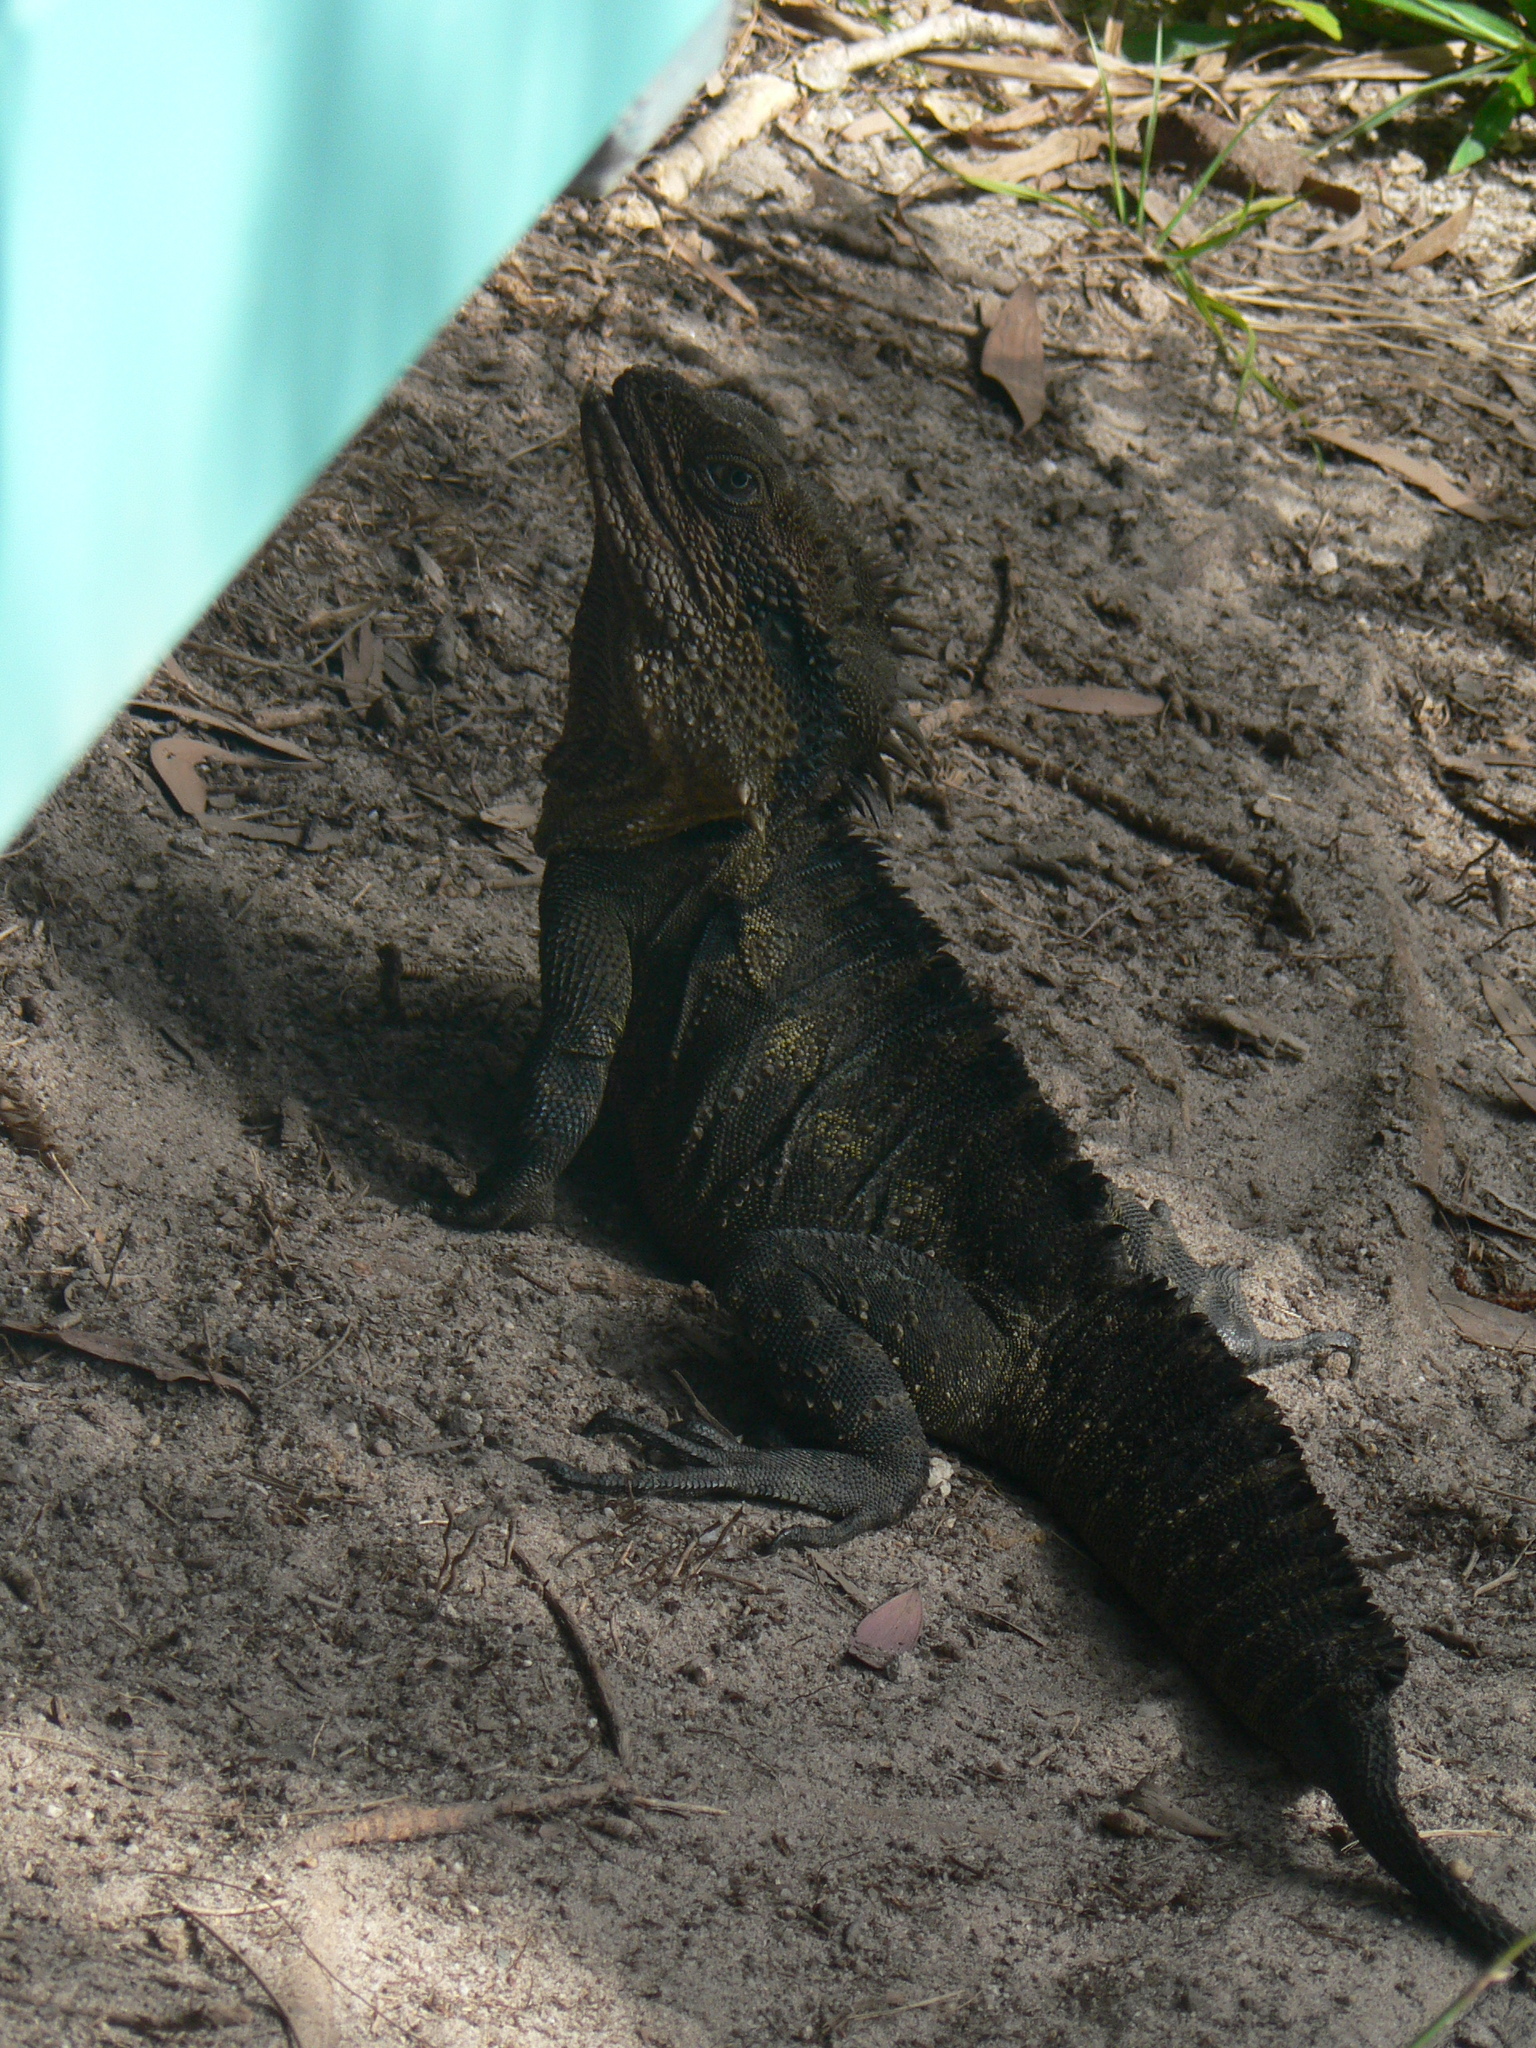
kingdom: Animalia
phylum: Chordata
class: Squamata
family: Agamidae
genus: Intellagama
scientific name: Intellagama lesueurii
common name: Eastern water dragon
